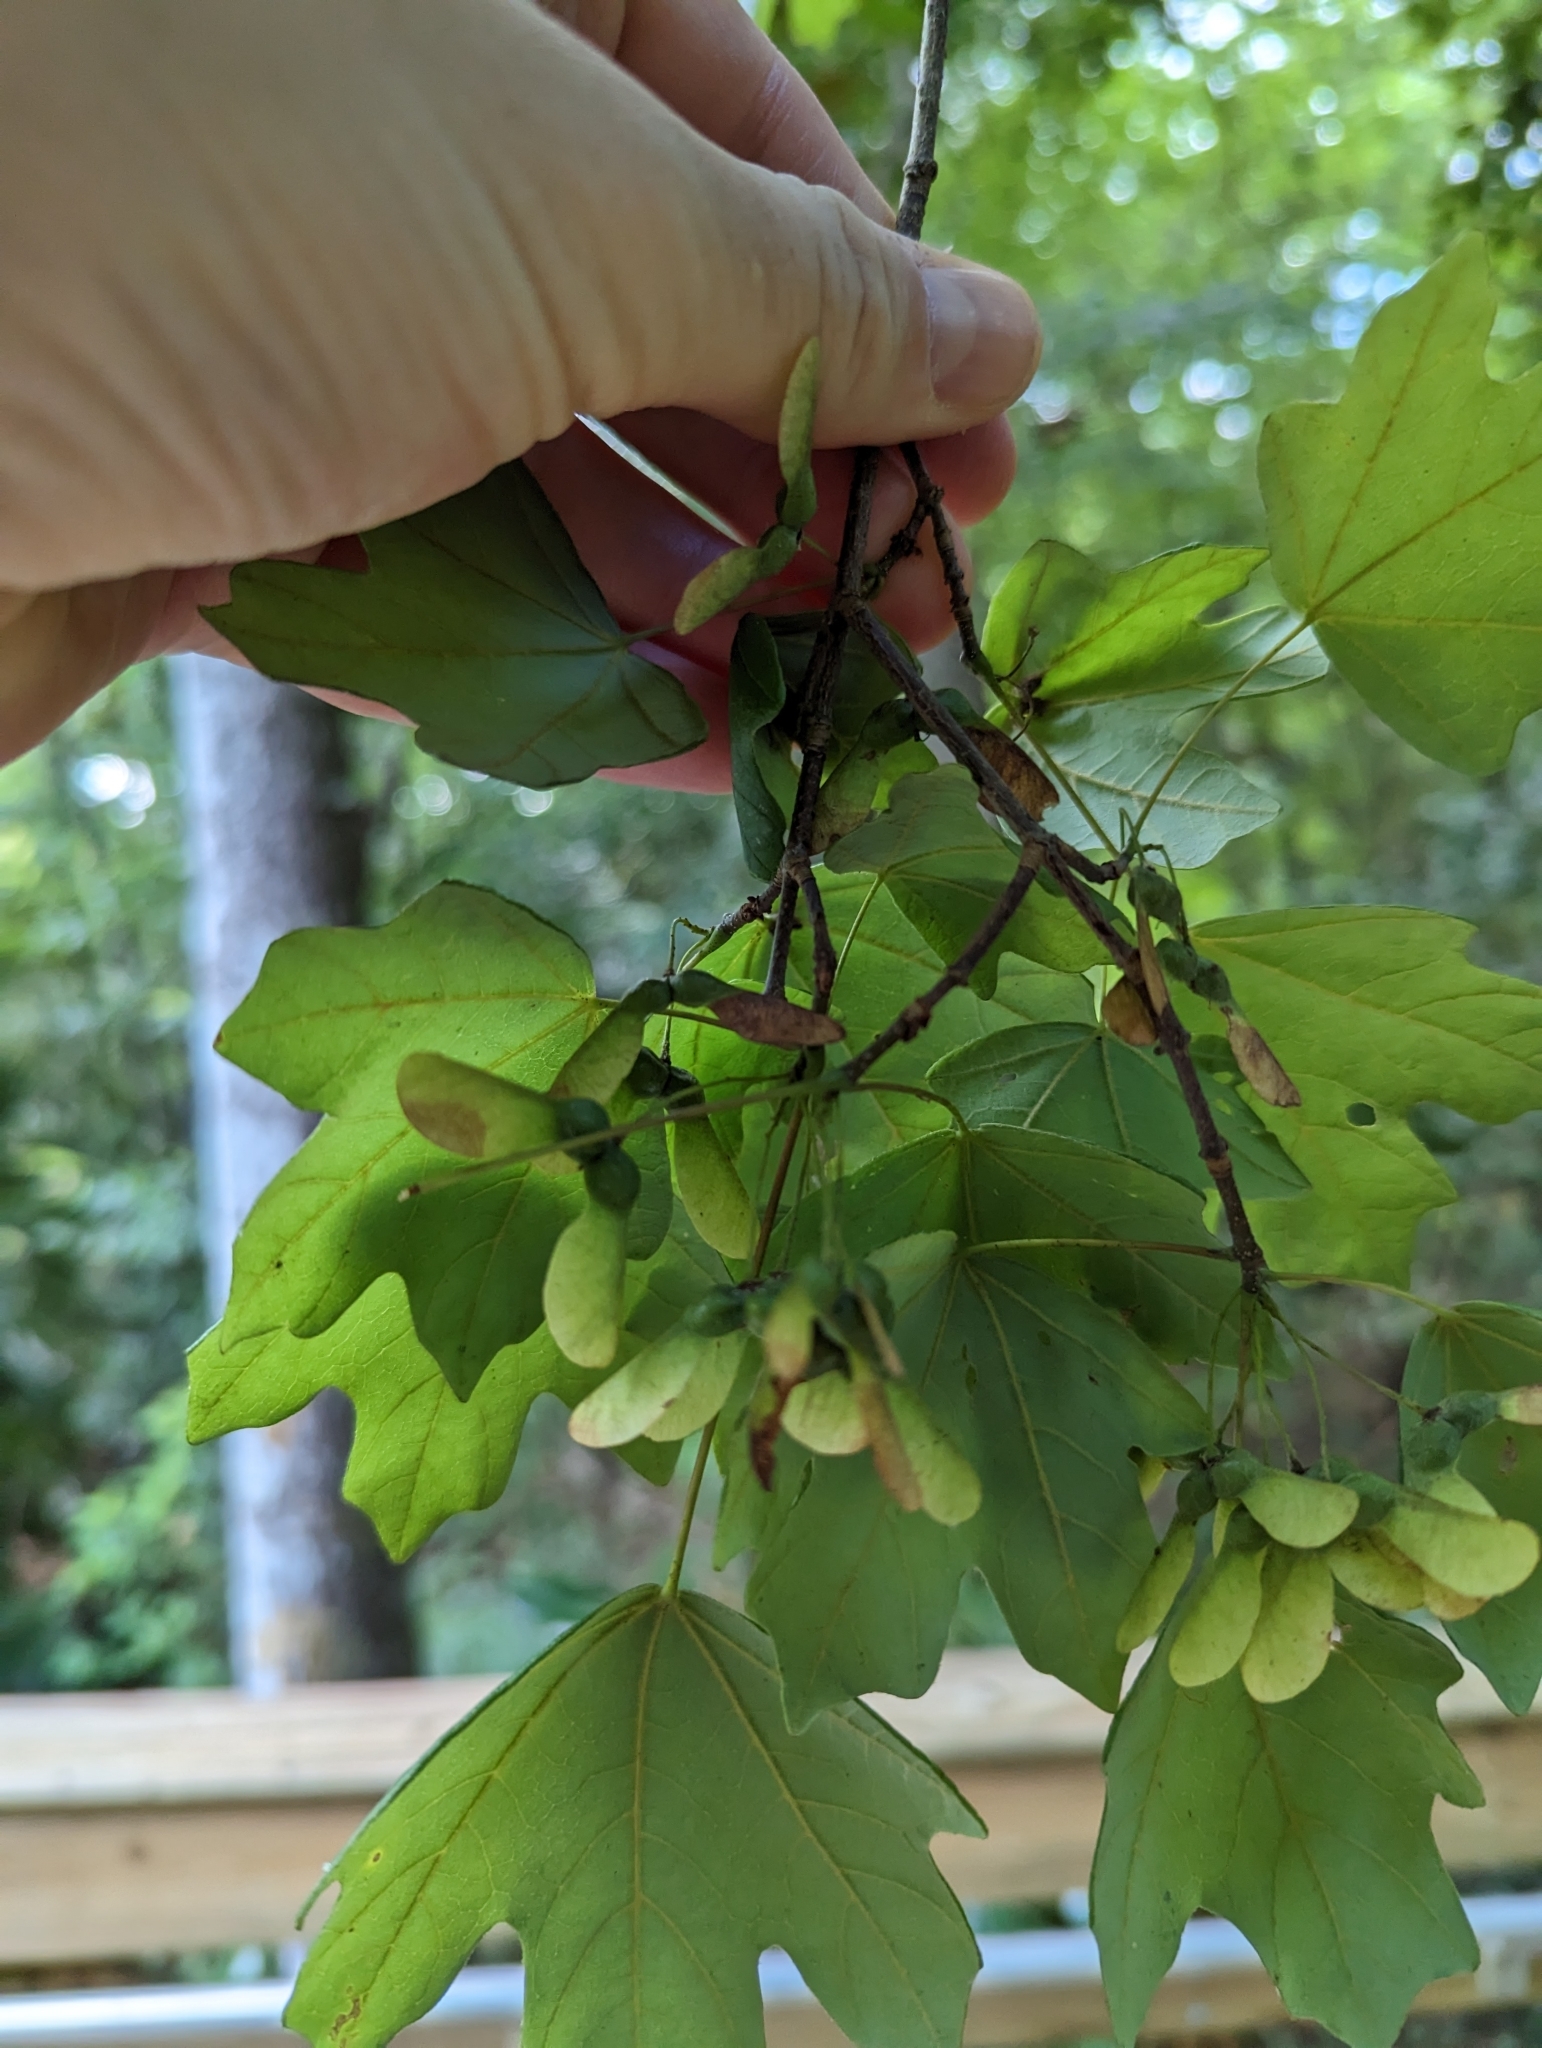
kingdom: Plantae
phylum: Tracheophyta
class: Magnoliopsida
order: Sapindales
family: Sapindaceae
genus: Acer
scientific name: Acer floridanum
